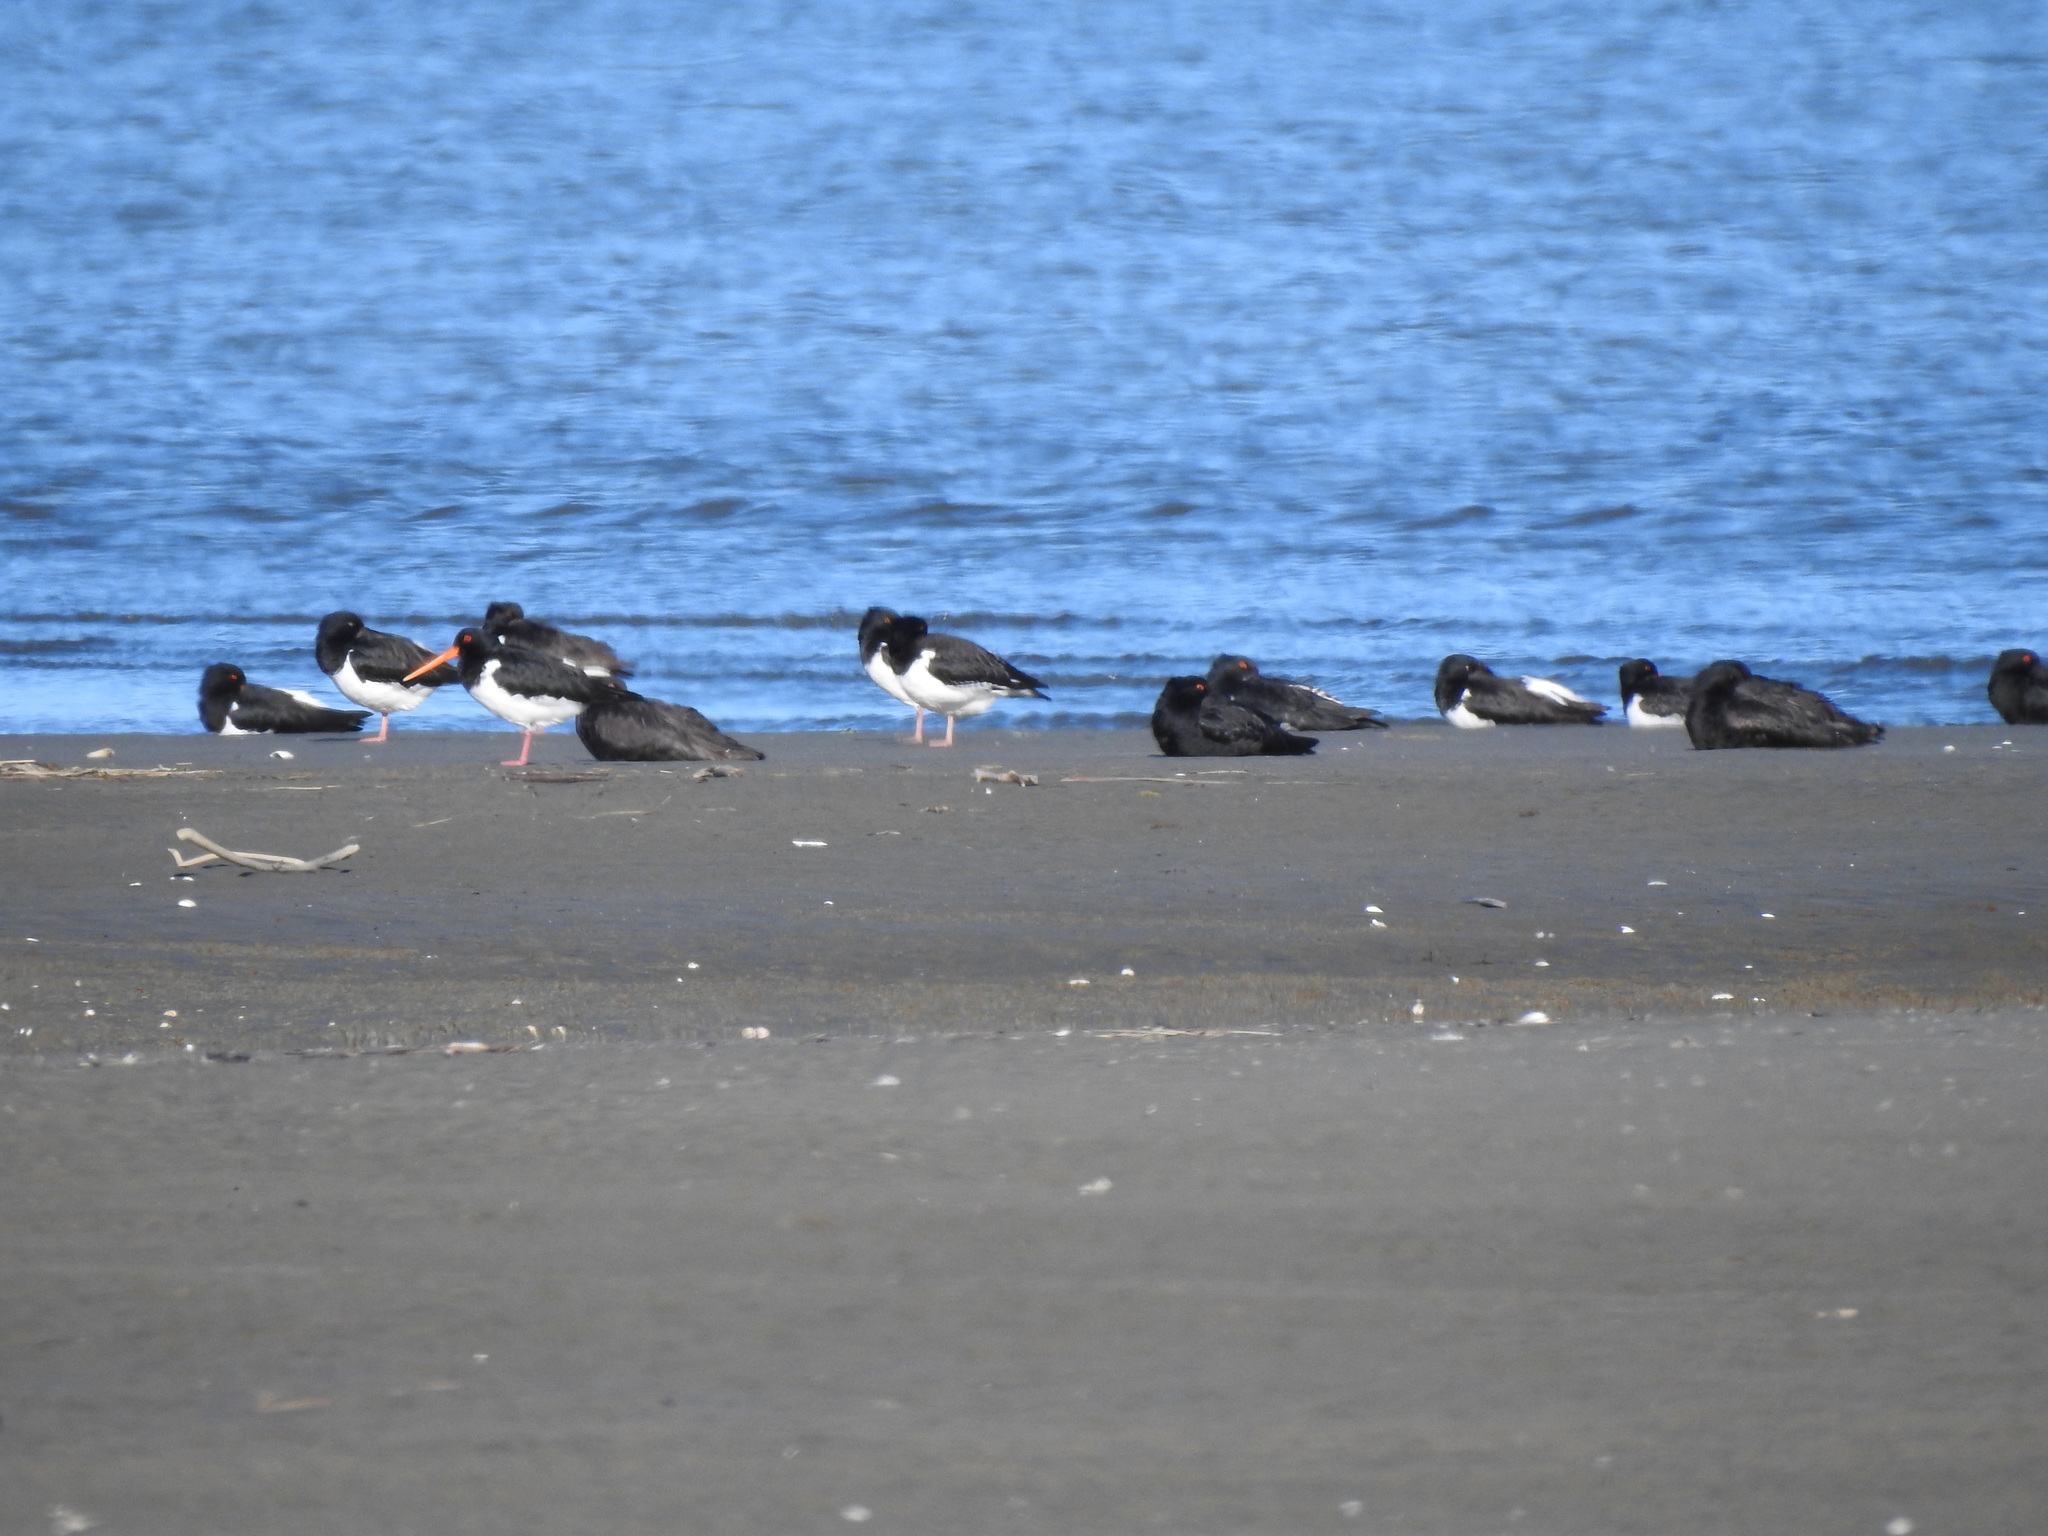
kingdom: Animalia
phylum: Chordata
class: Aves
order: Charadriiformes
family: Haematopodidae
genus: Haematopus
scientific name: Haematopus finschi
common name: South island oystercatcher
